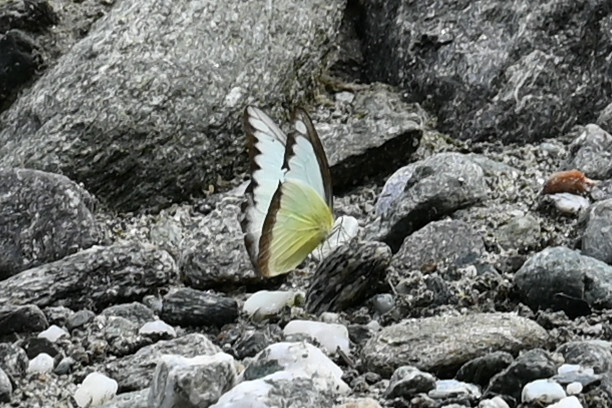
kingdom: Animalia
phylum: Arthropoda
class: Insecta
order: Lepidoptera
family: Pieridae
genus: Appias
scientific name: Appias lyncida
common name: Chocolate albatross
